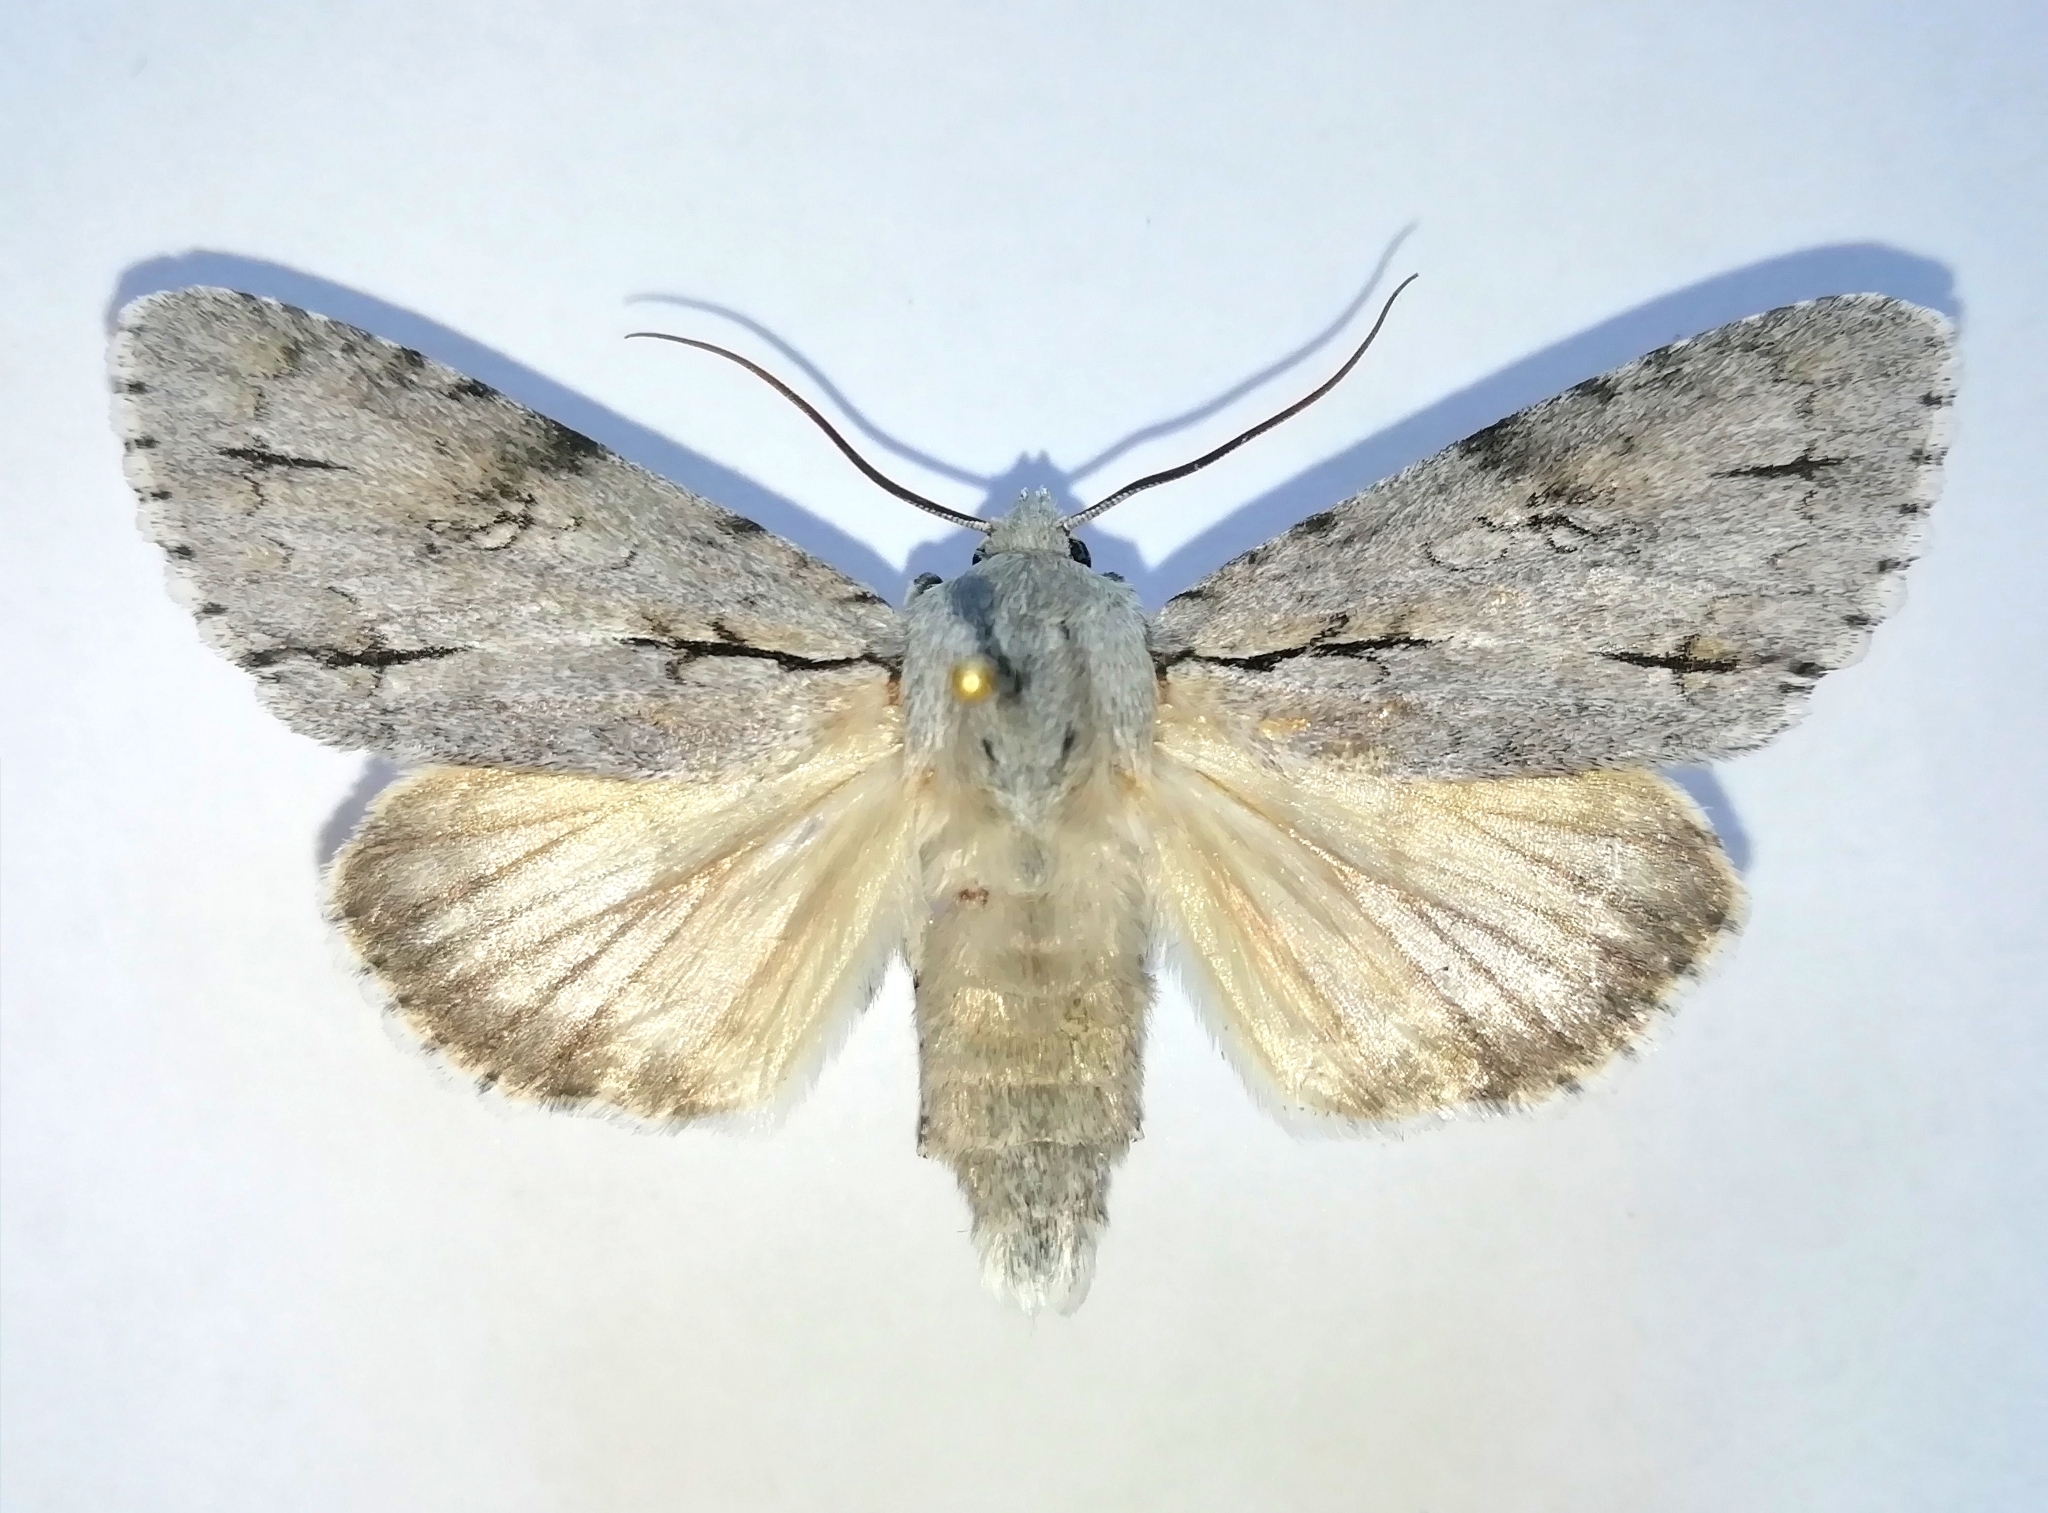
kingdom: Animalia
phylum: Arthropoda
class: Insecta
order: Lepidoptera
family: Noctuidae
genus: Acronicta
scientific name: Acronicta major
